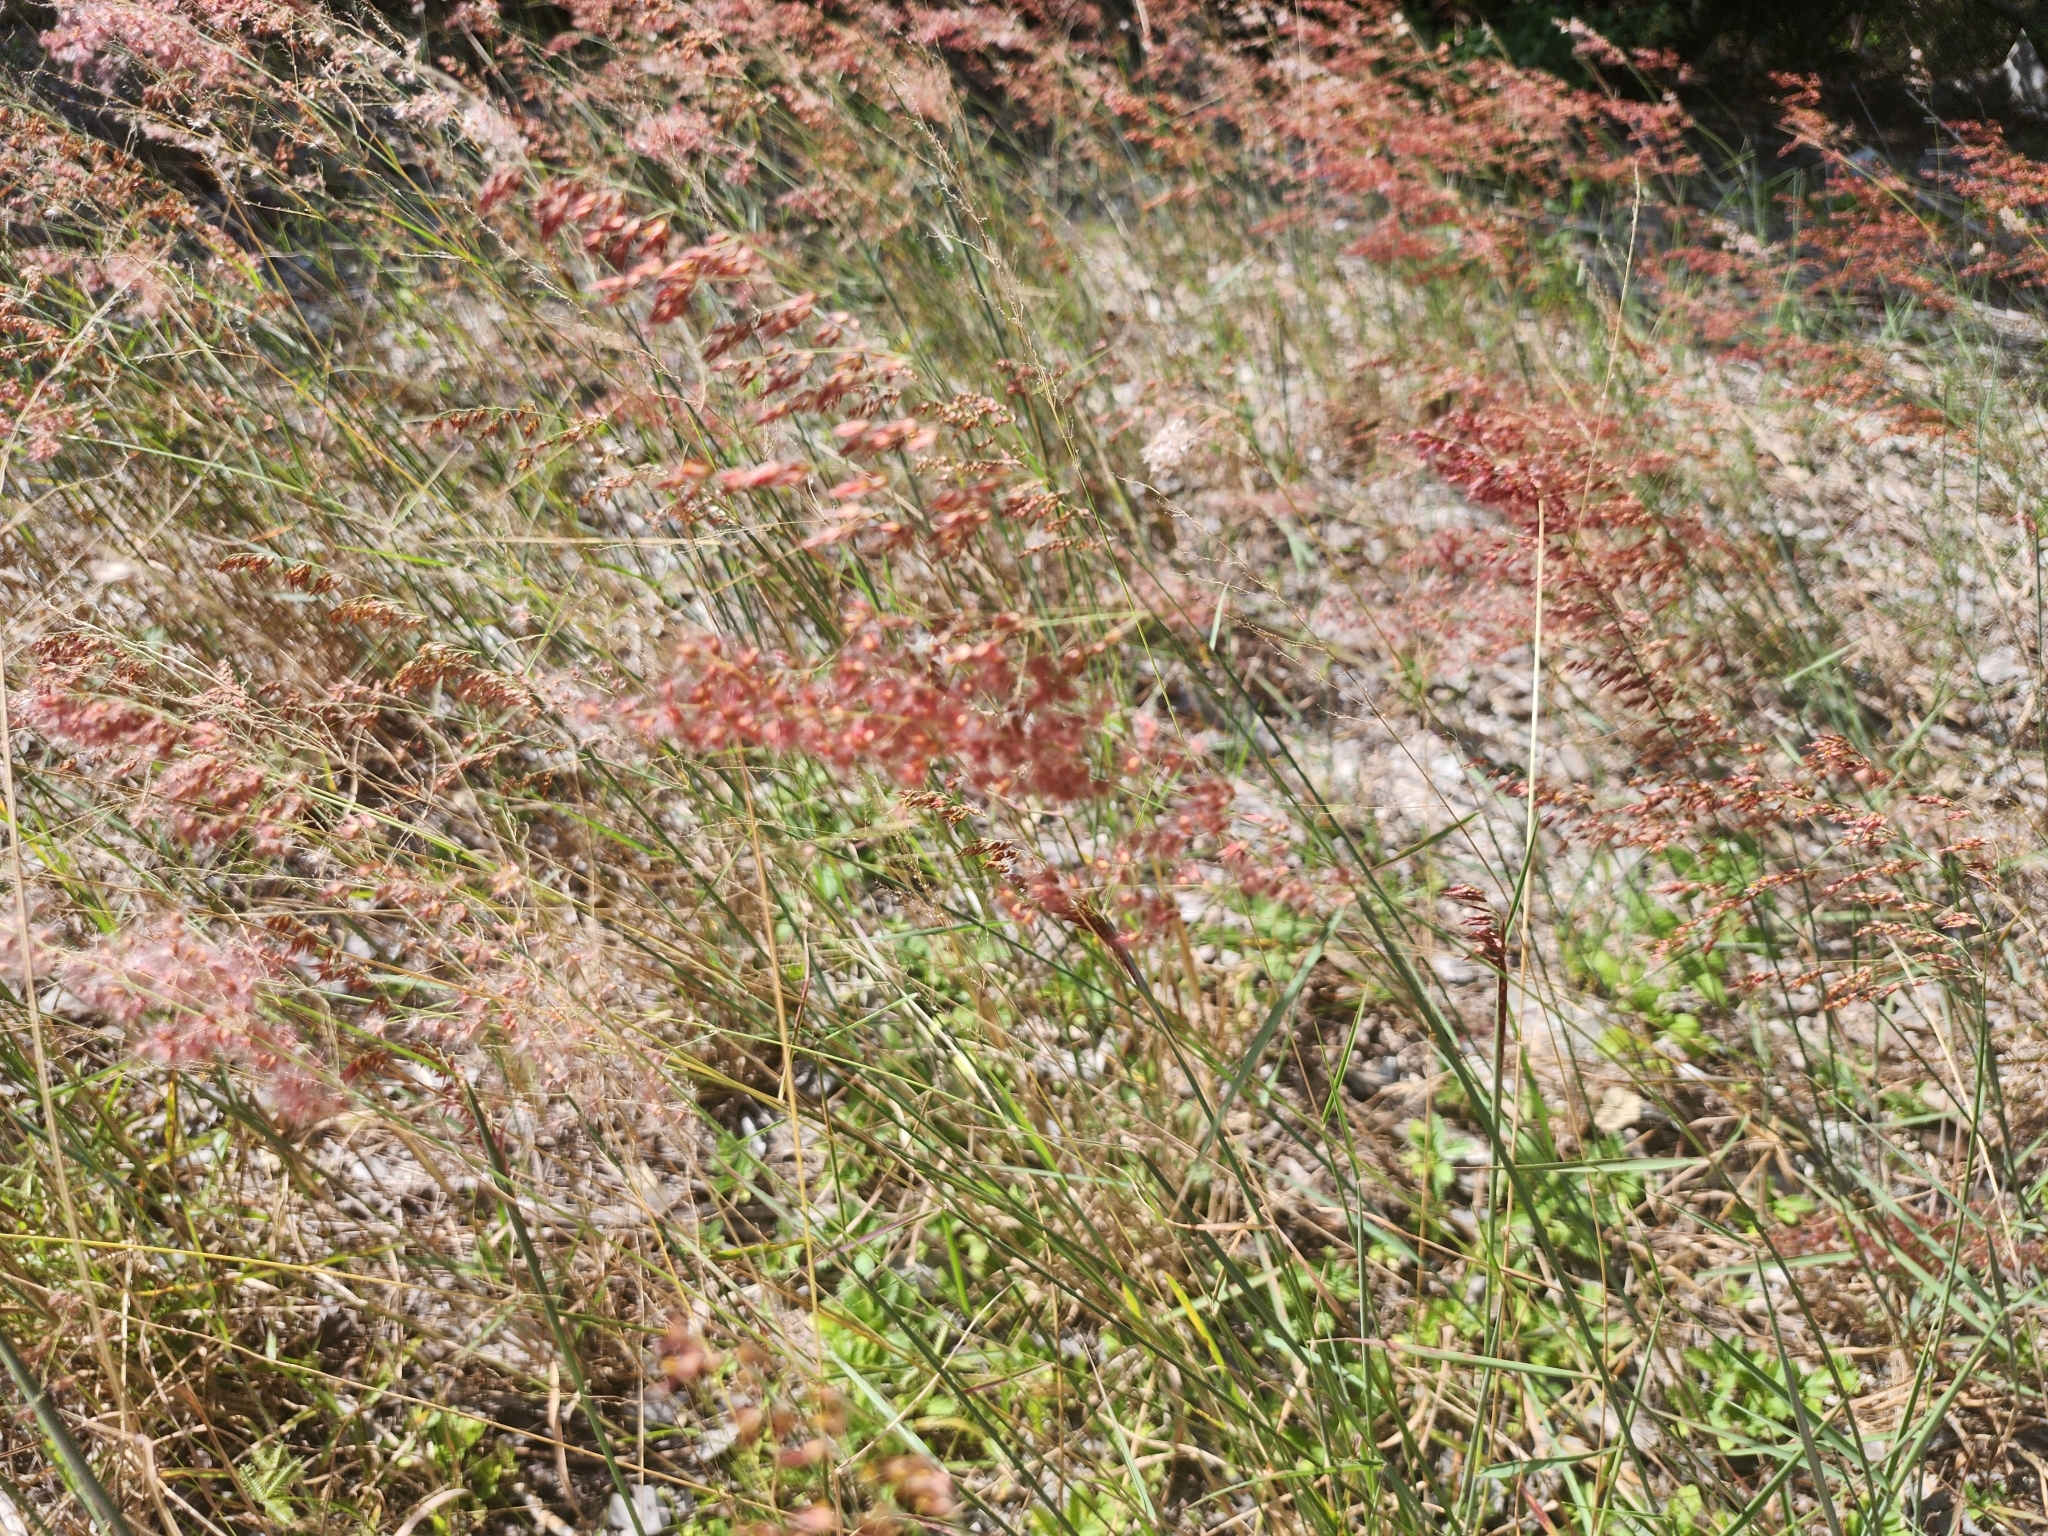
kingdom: Plantae
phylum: Tracheophyta
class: Liliopsida
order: Poales
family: Poaceae
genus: Melinis
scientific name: Melinis repens
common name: Rose natal grass
